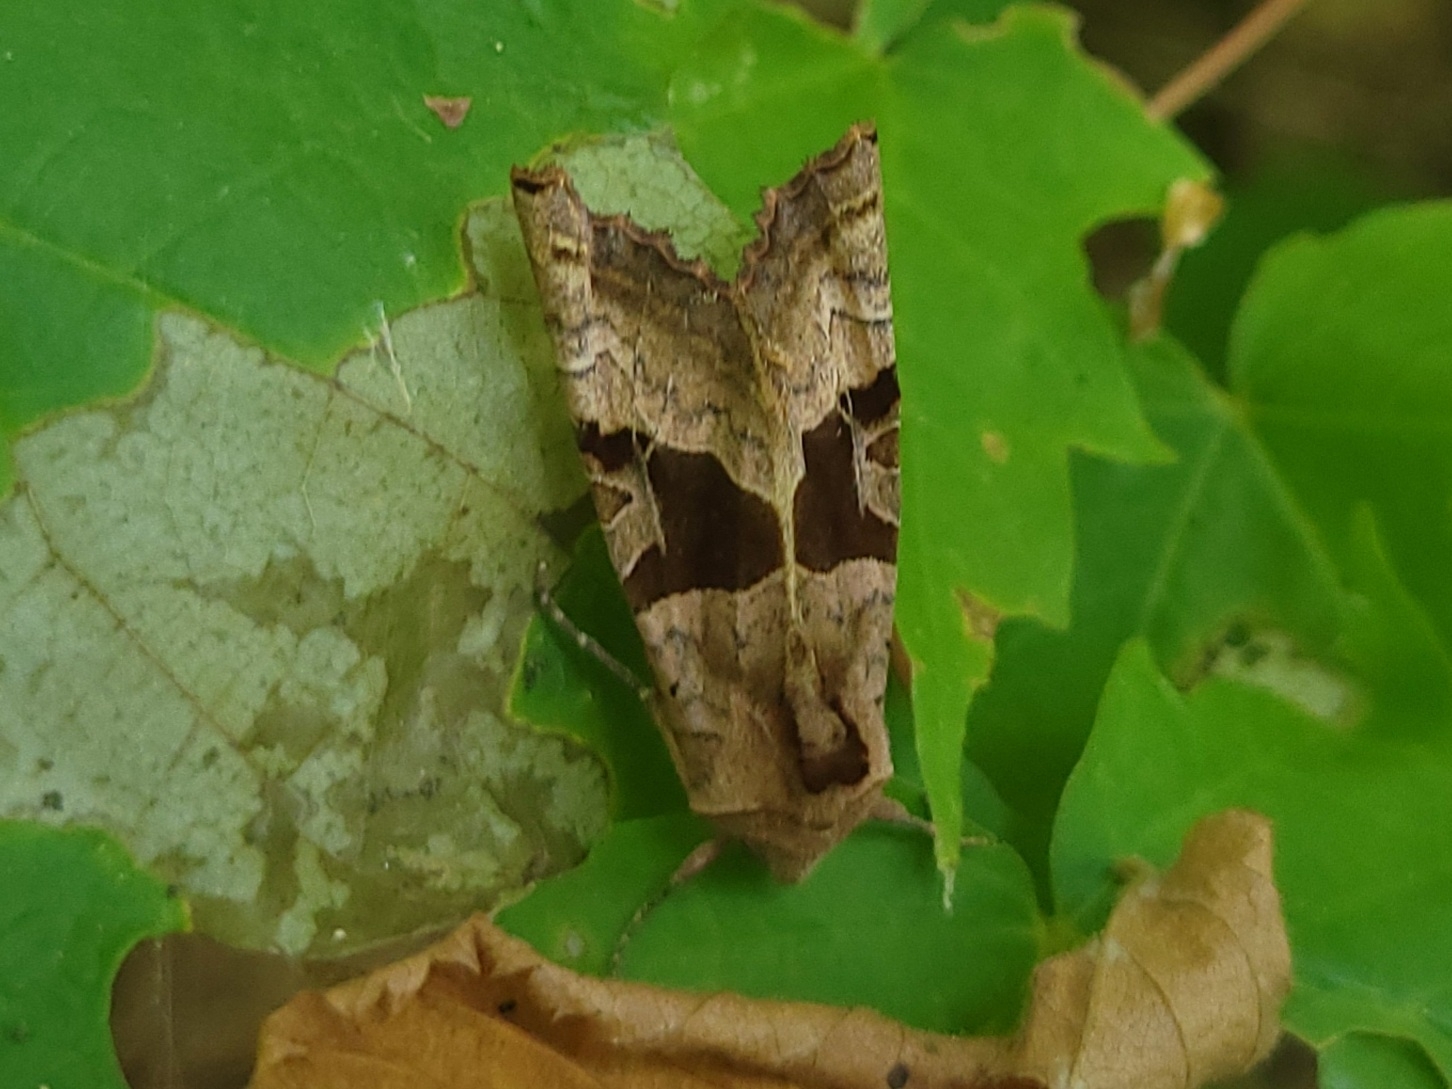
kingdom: Animalia
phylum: Arthropoda
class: Insecta
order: Lepidoptera
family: Noctuidae
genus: Phlogophora
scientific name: Phlogophora periculosa
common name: Brown angle shades
